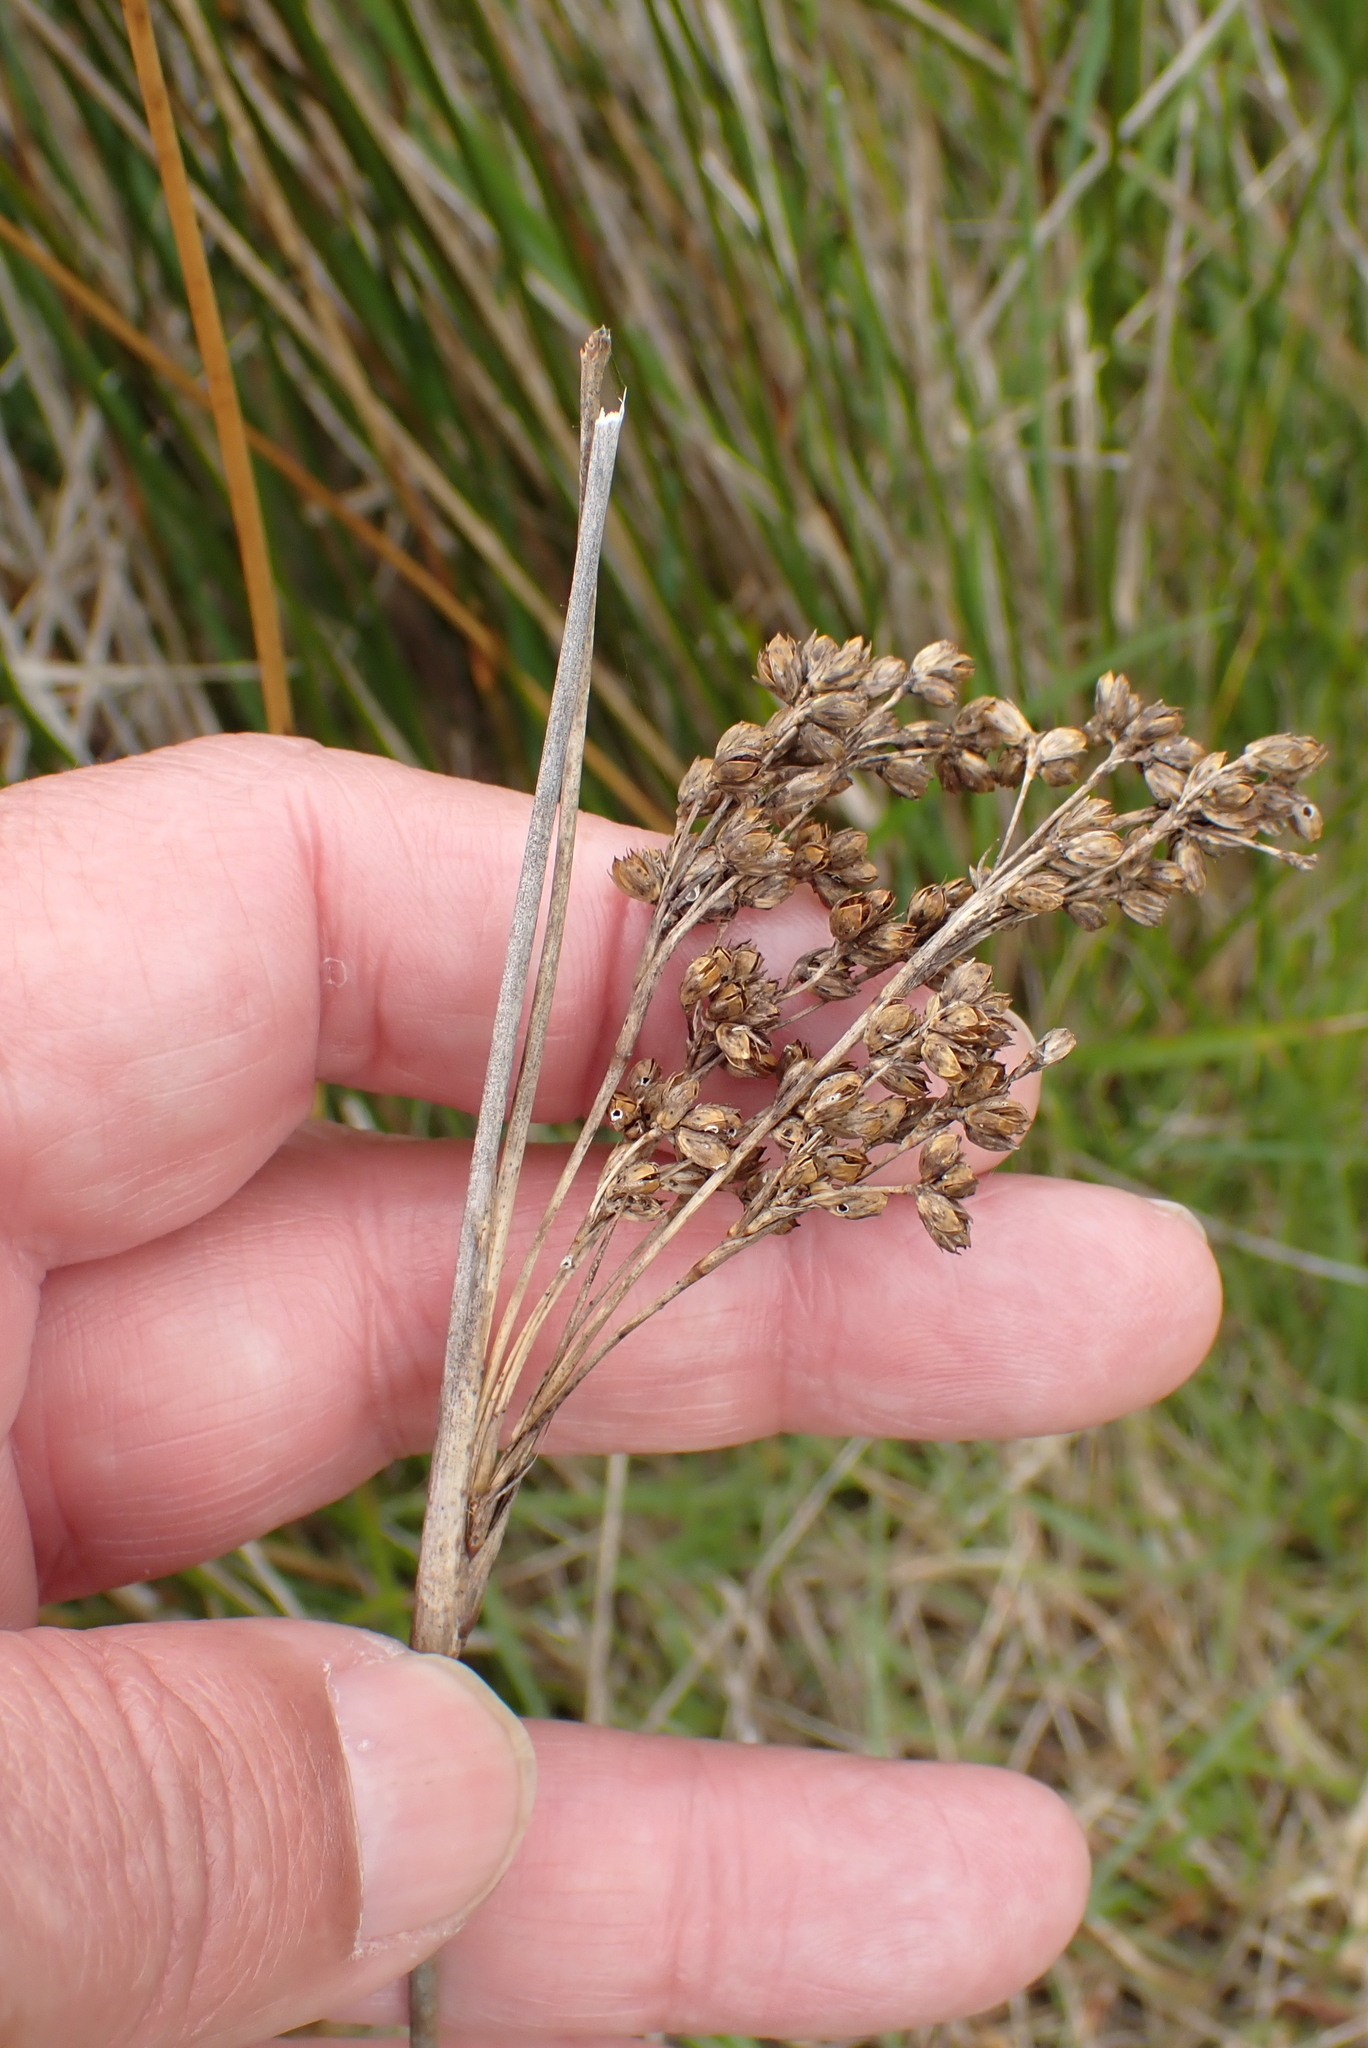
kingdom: Plantae
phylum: Tracheophyta
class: Liliopsida
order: Poales
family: Juncaceae
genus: Juncus
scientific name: Juncus maritimus
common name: Sea rush
